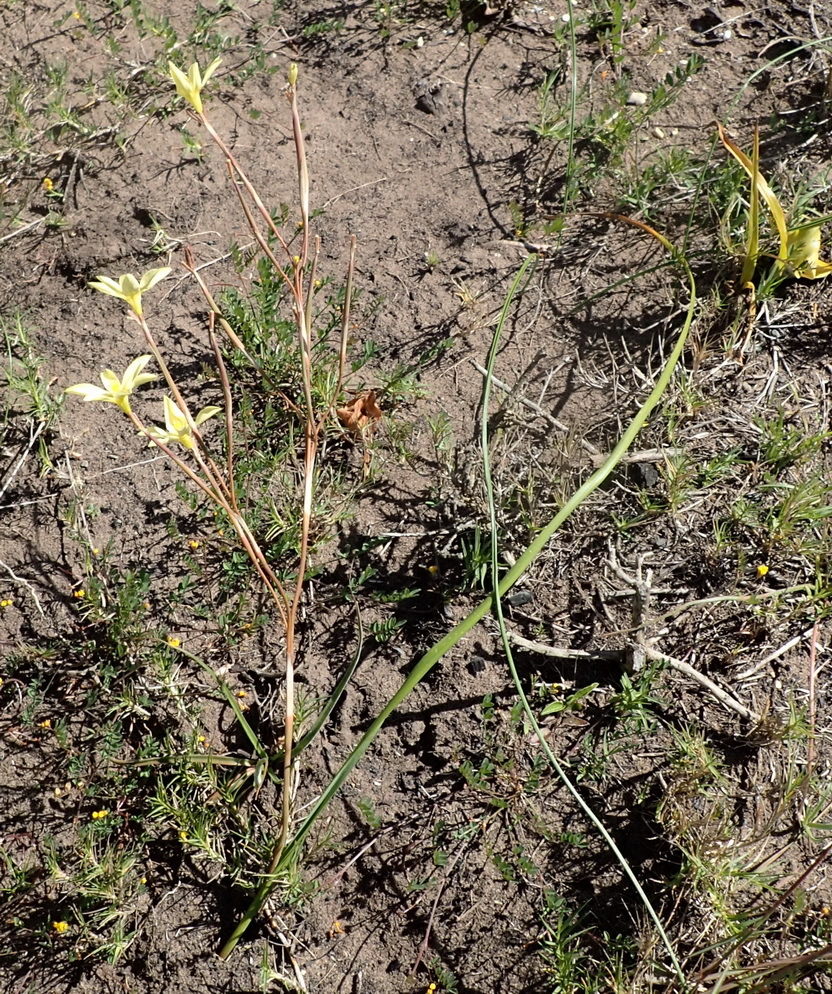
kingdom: Plantae
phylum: Tracheophyta
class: Liliopsida
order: Asparagales
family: Iridaceae
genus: Moraea
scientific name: Moraea bulbillifera
